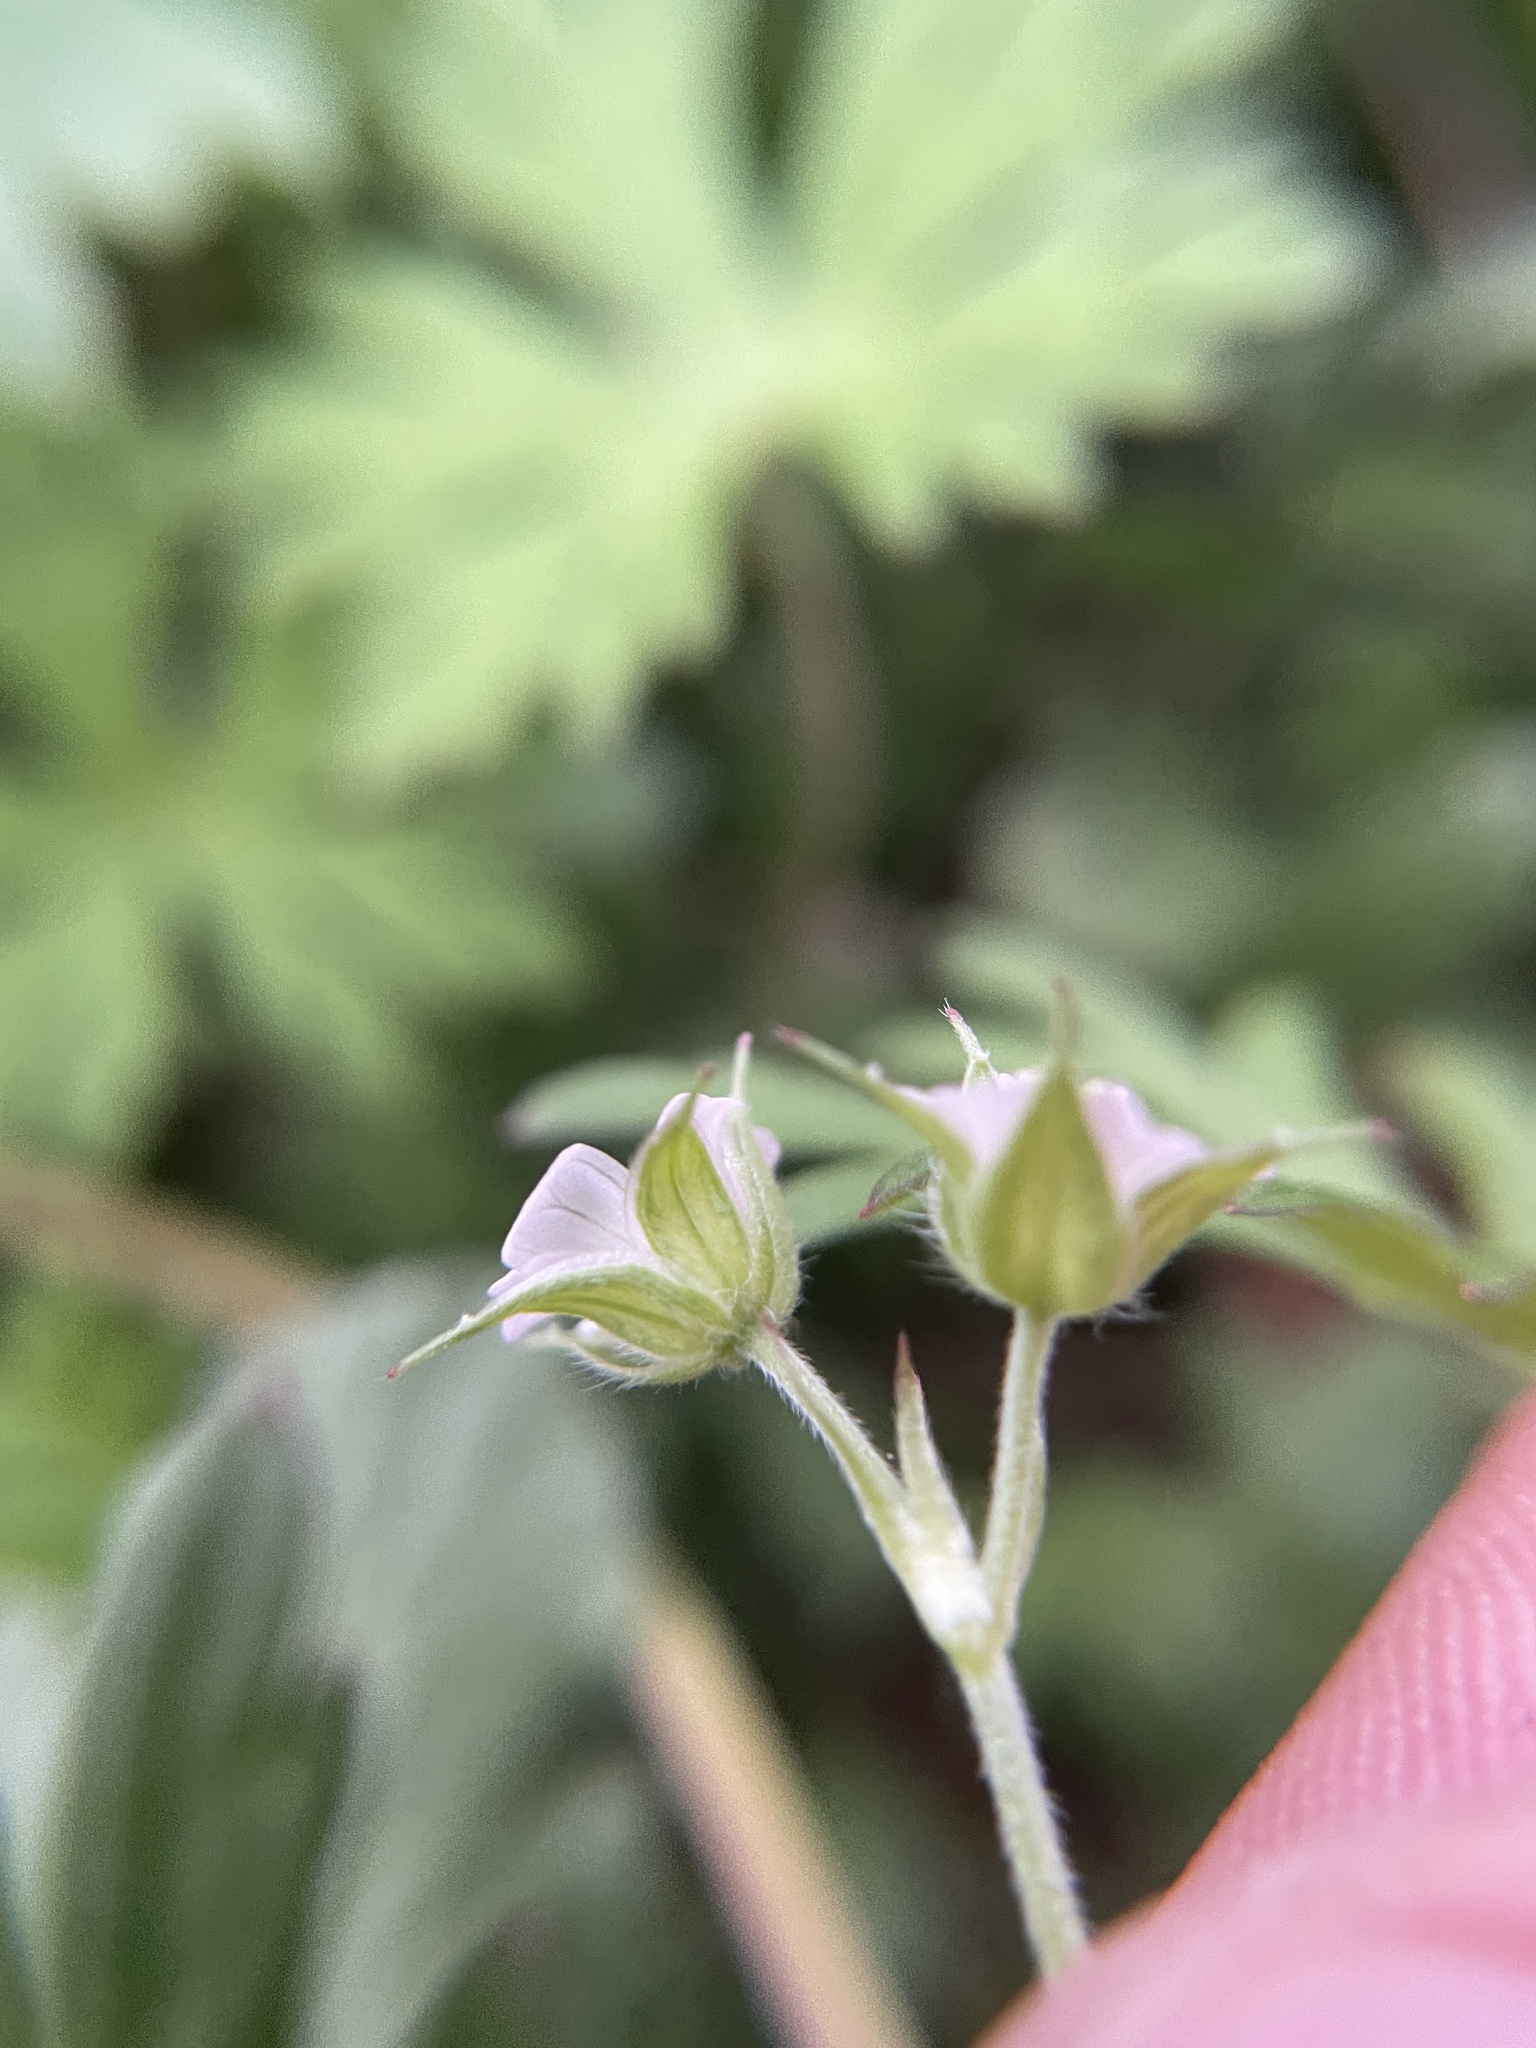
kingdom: Plantae
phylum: Tracheophyta
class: Magnoliopsida
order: Geraniales
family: Geraniaceae
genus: Geranium
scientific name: Geranium carolinianum
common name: Carolina crane's-bill
